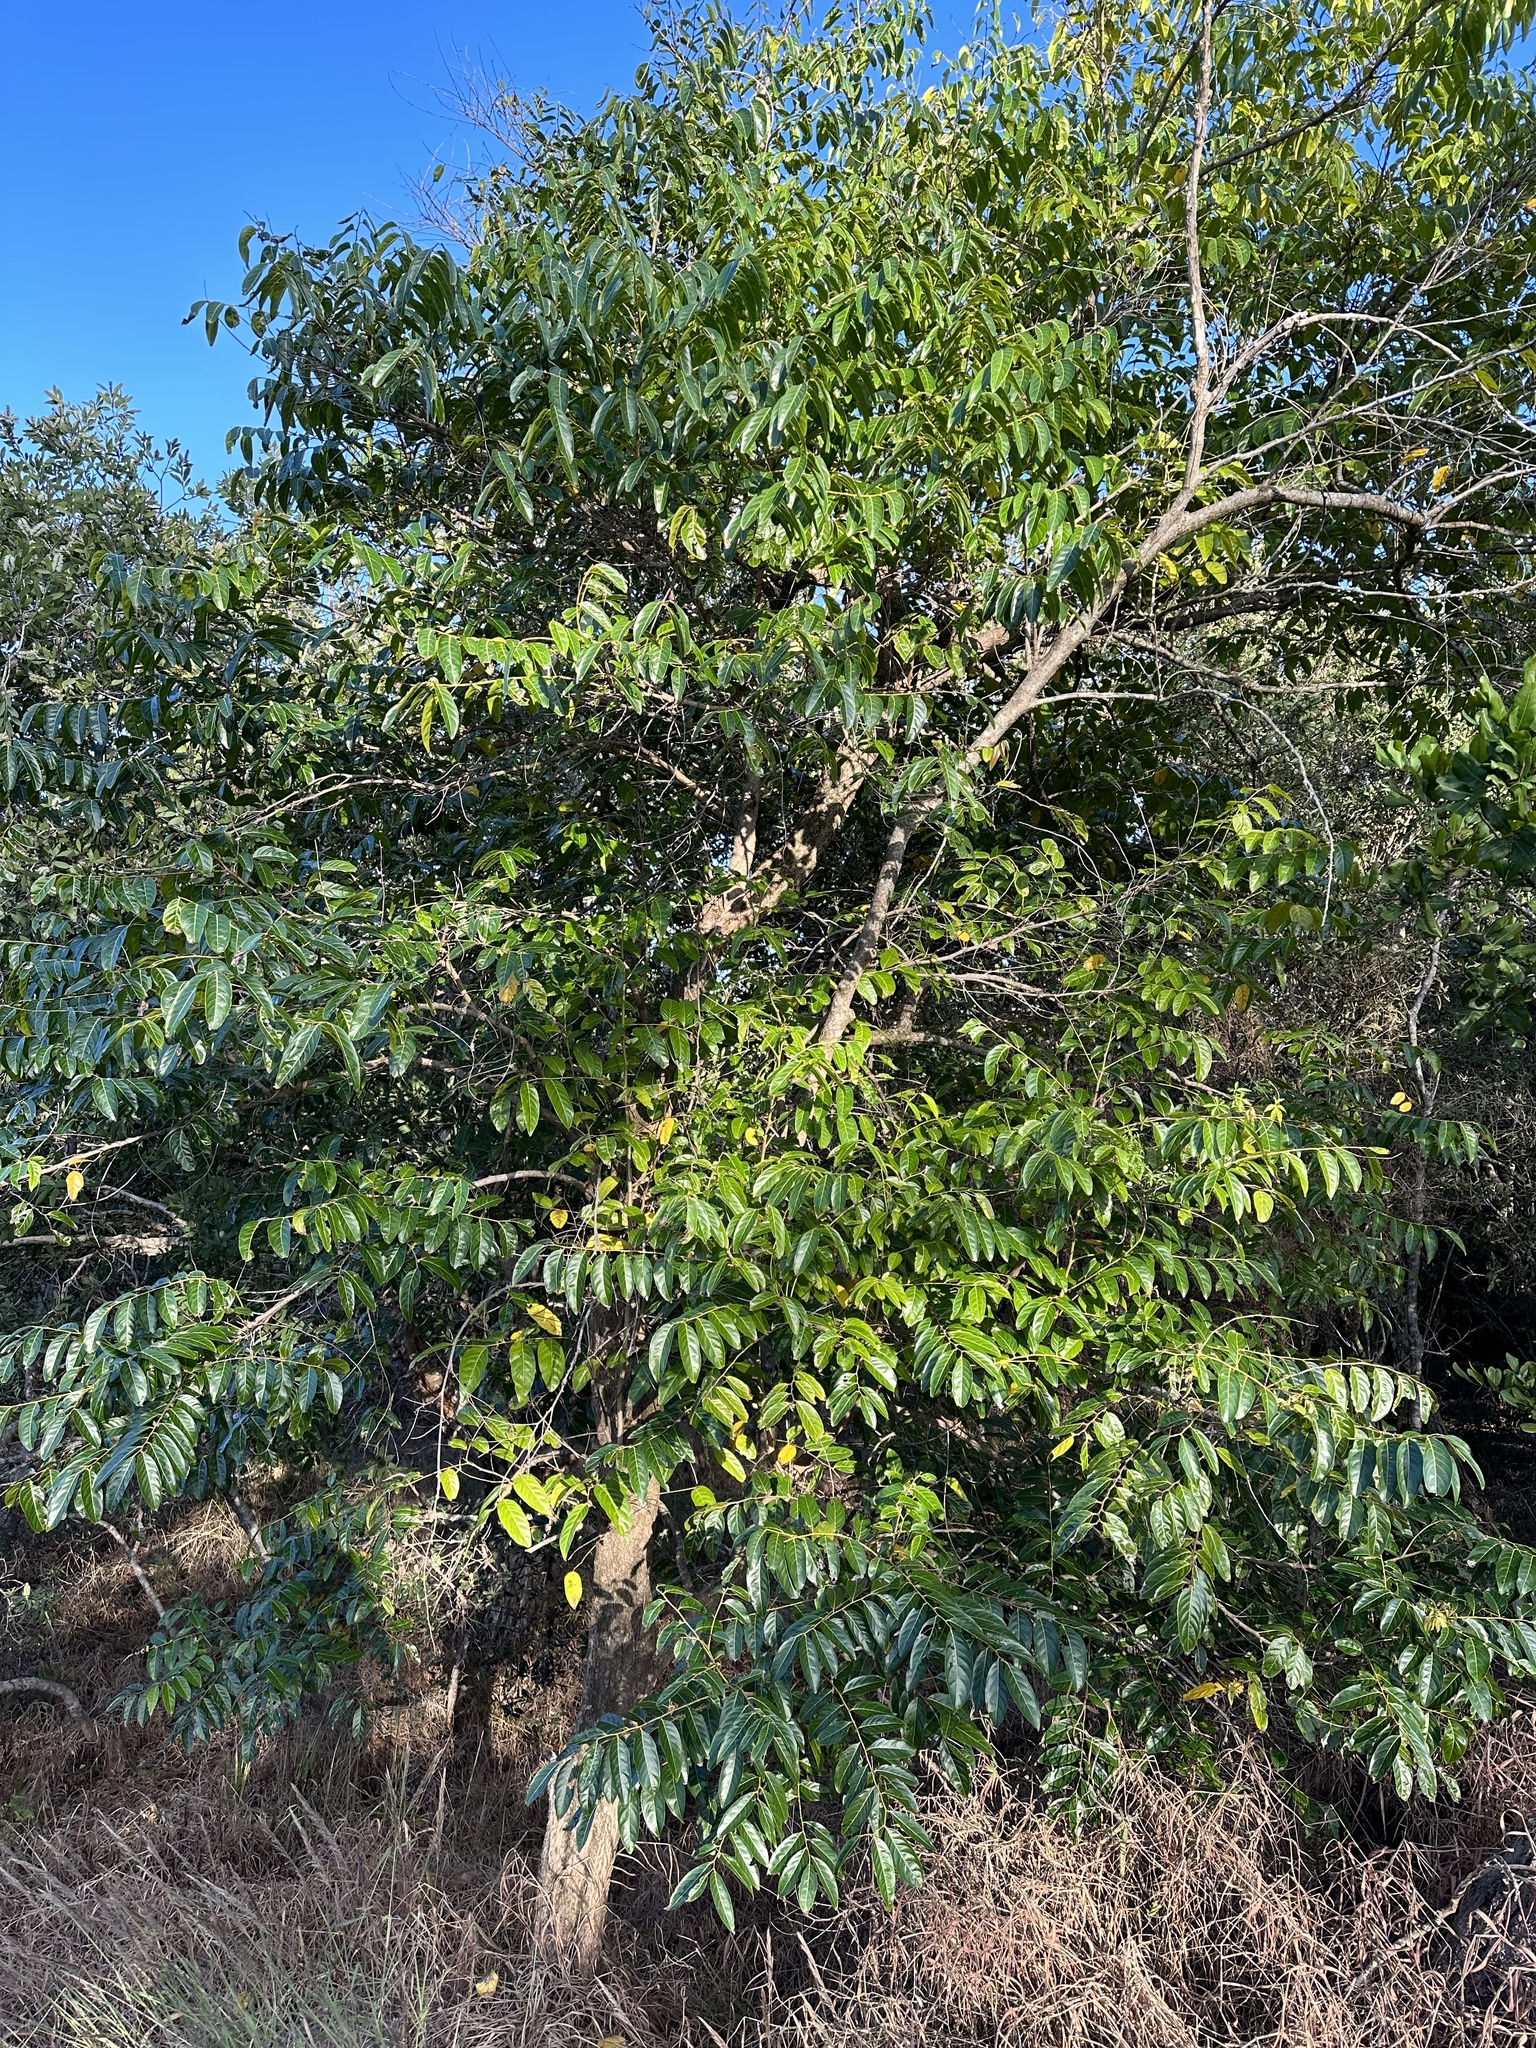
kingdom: Plantae
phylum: Tracheophyta
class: Magnoliopsida
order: Malpighiales
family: Phyllanthaceae
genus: Glochidion
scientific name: Glochidion zeylanicum
